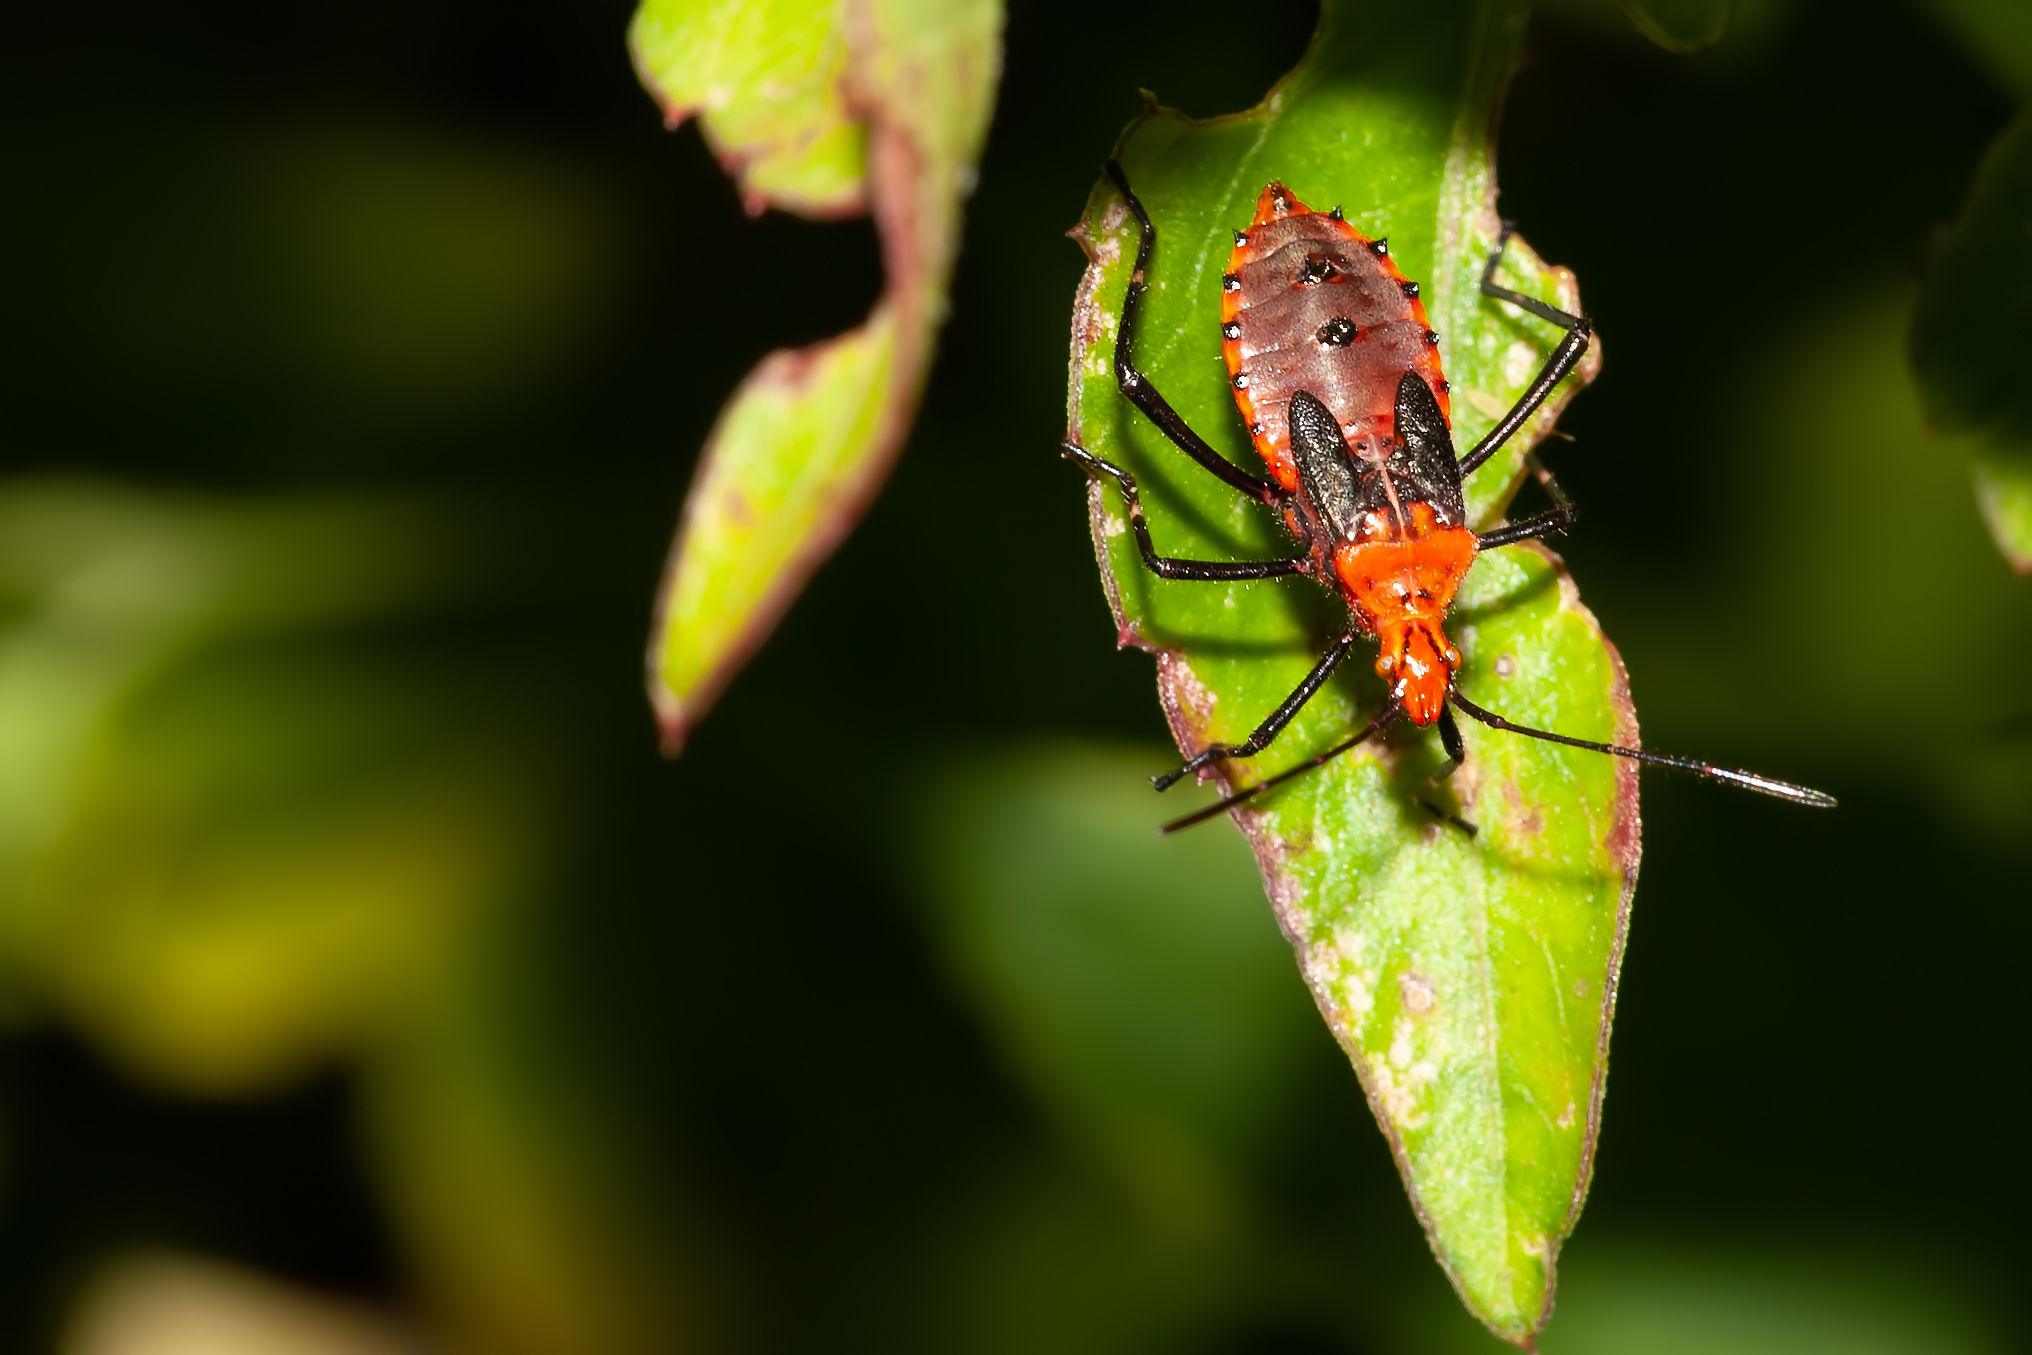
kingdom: Animalia
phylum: Arthropoda
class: Insecta
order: Hemiptera
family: Coreidae
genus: Phthiacnemia
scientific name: Phthiacnemia picta
